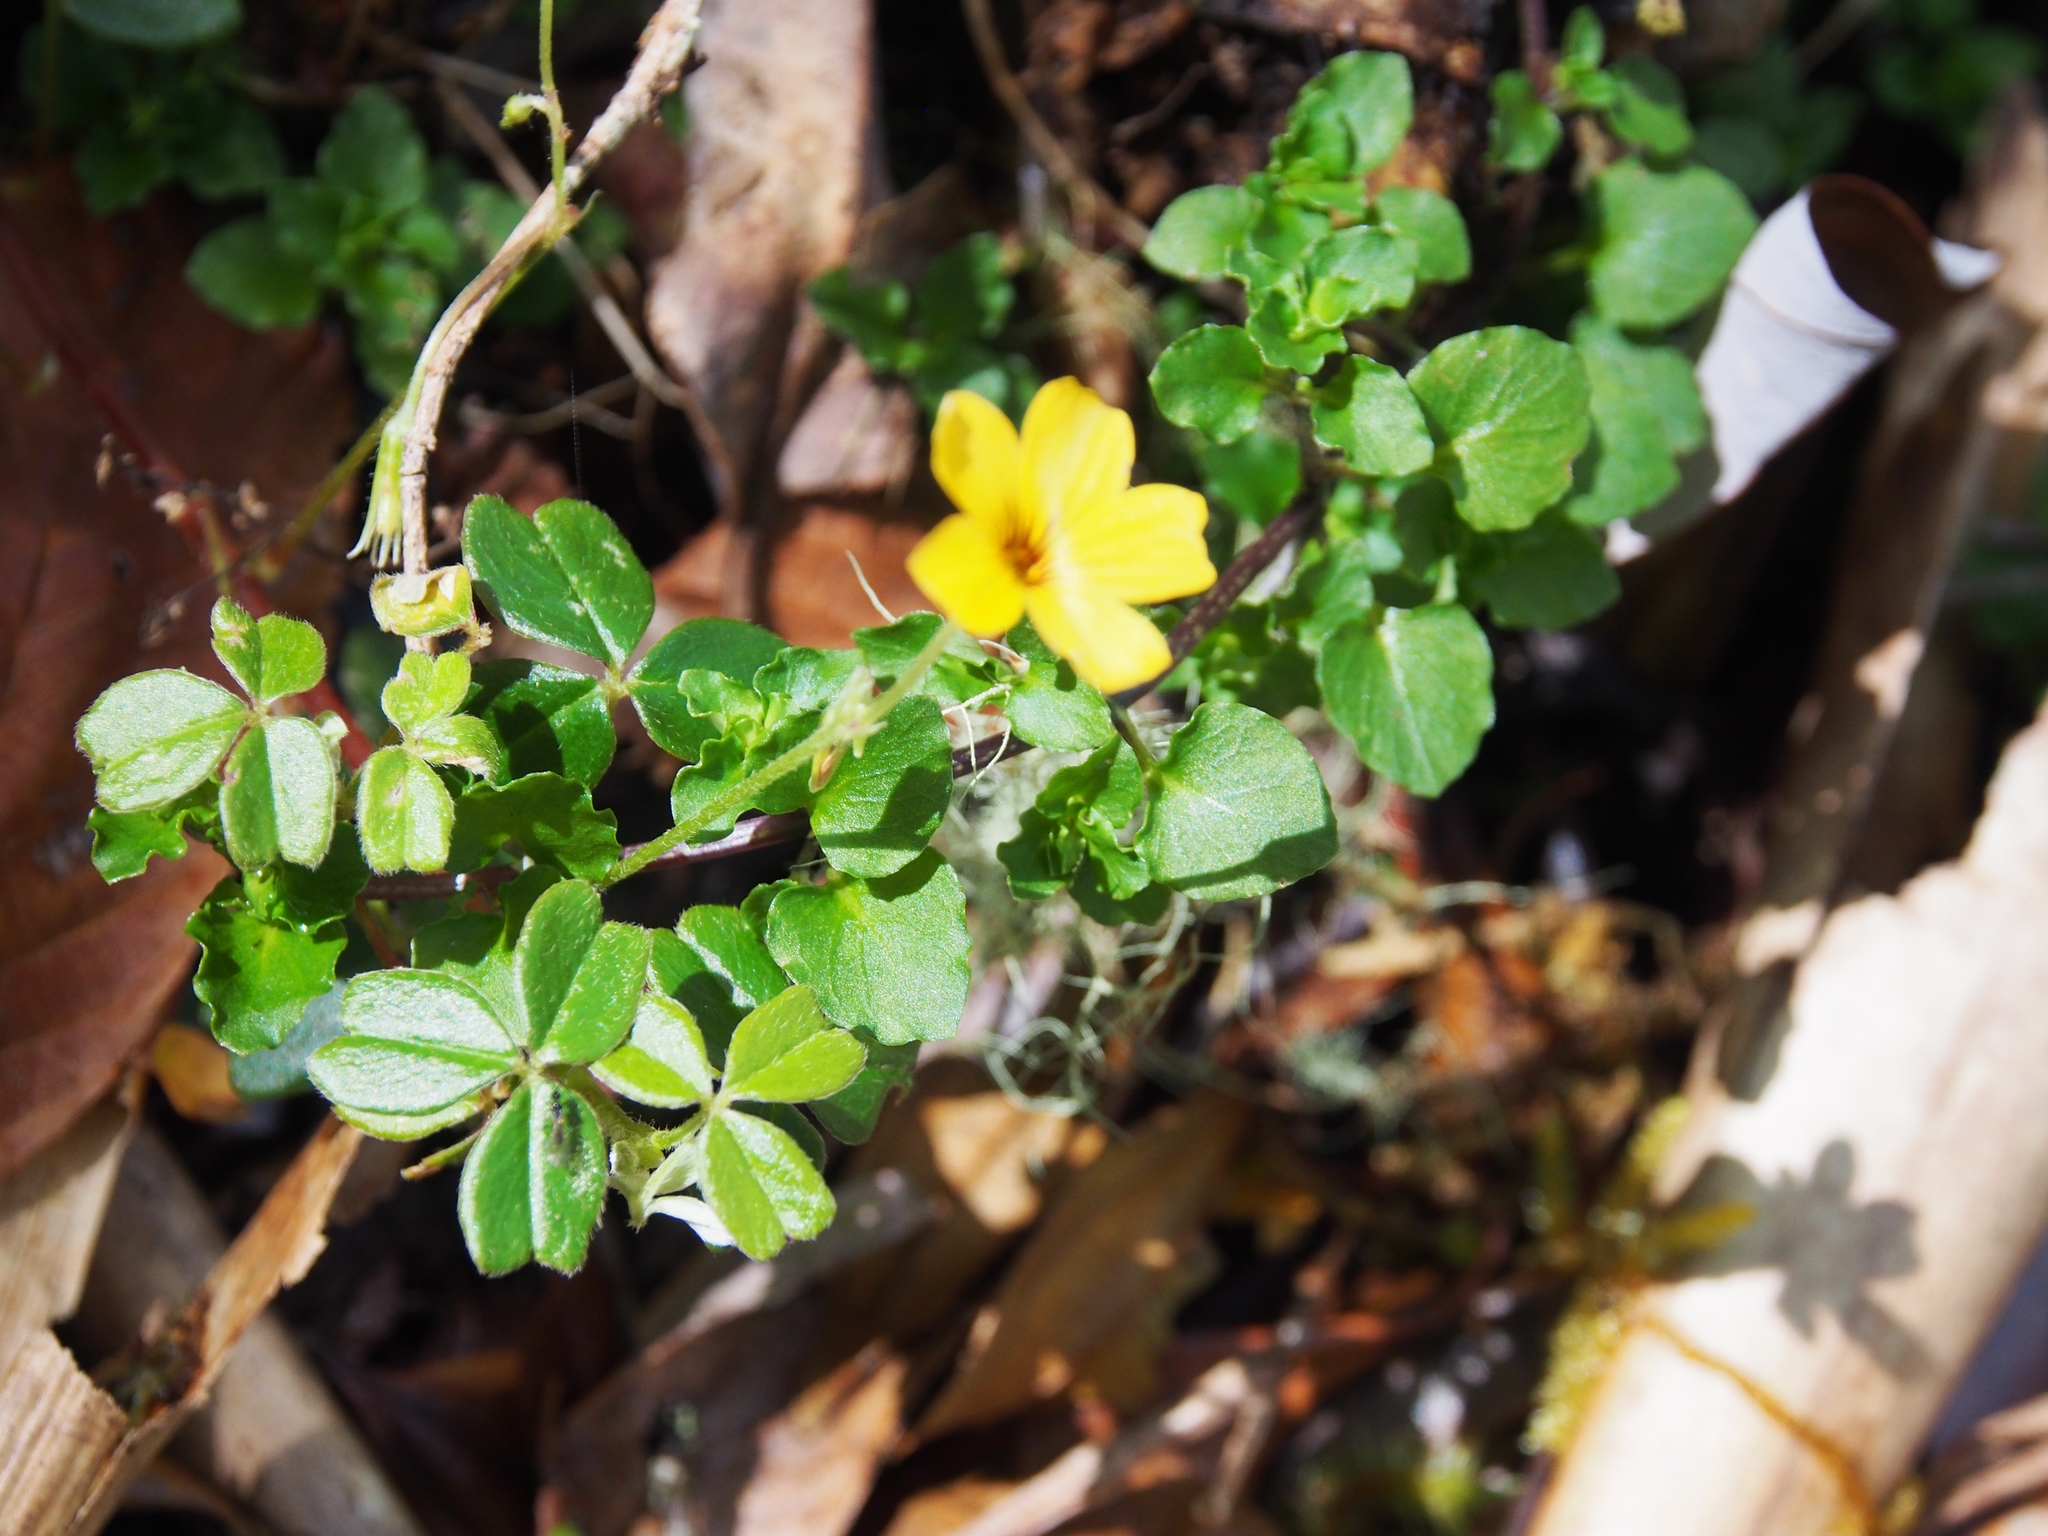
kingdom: Plantae
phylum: Tracheophyta
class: Magnoliopsida
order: Oxalidales
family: Oxalidaceae
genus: Oxalis
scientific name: Oxalis spiralis
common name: Spiral sorrel
